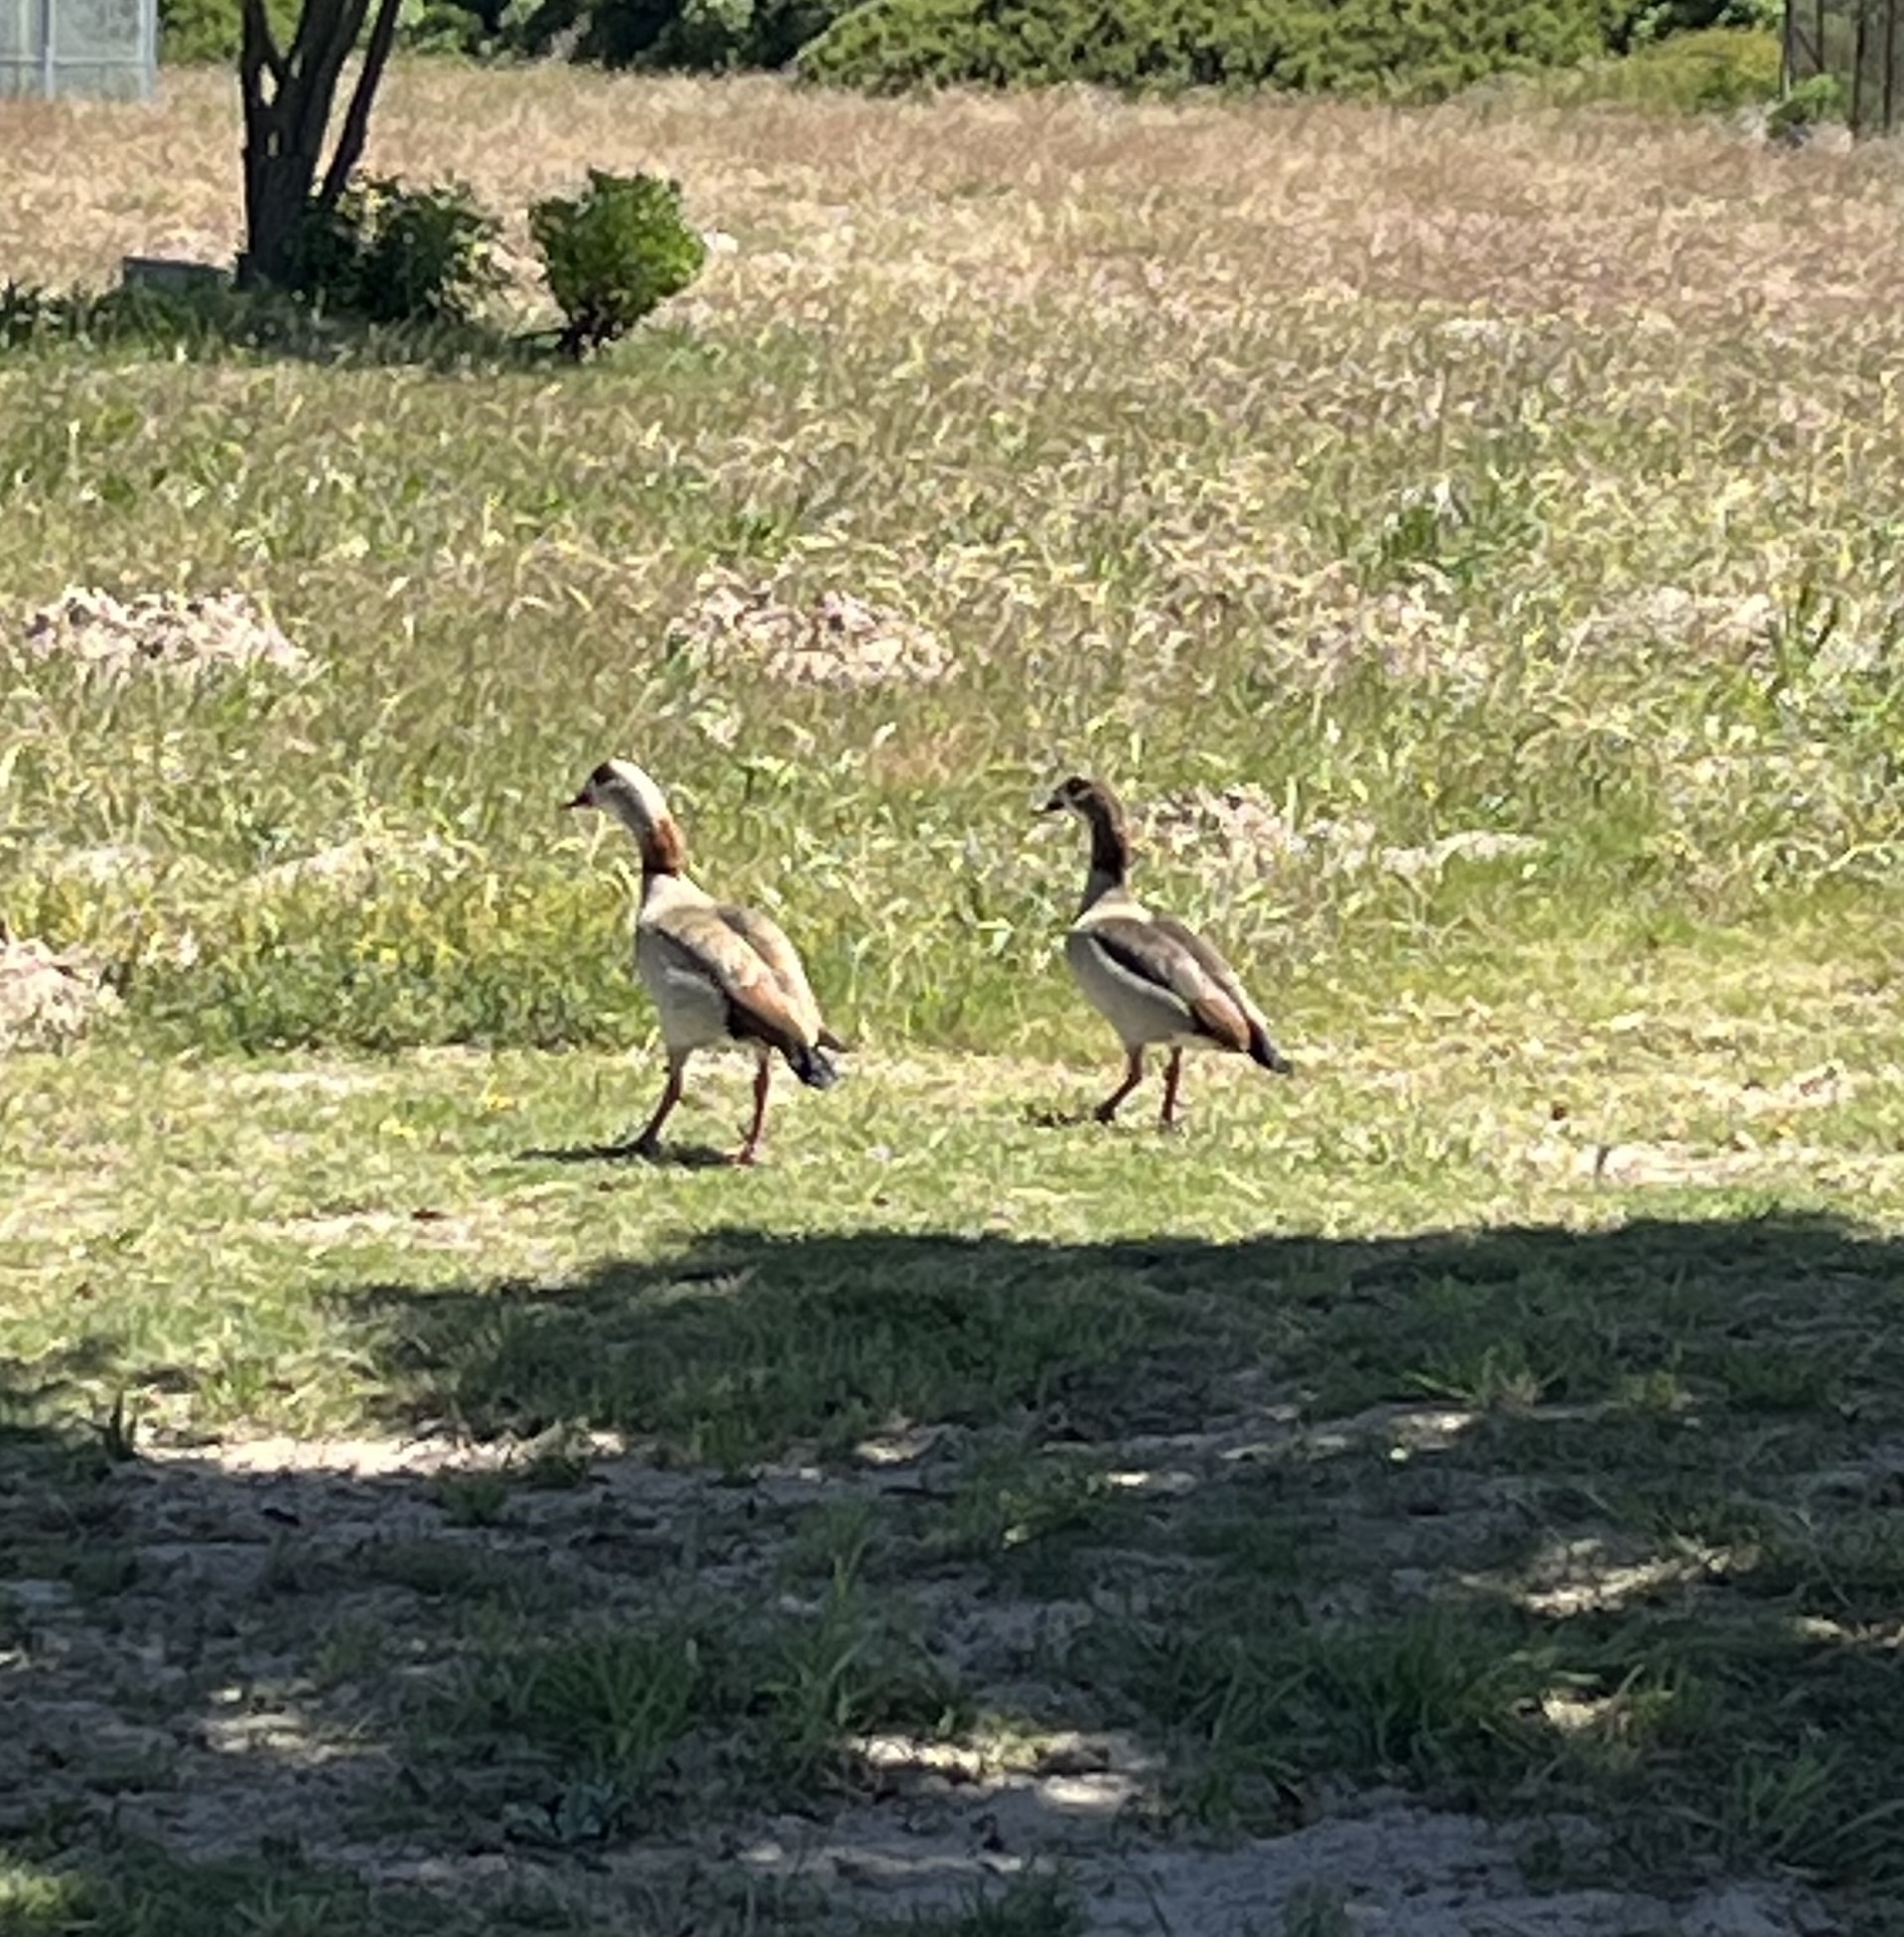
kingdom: Animalia
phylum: Chordata
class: Aves
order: Anseriformes
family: Anatidae
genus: Alopochen
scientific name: Alopochen aegyptiaca
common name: Egyptian goose
